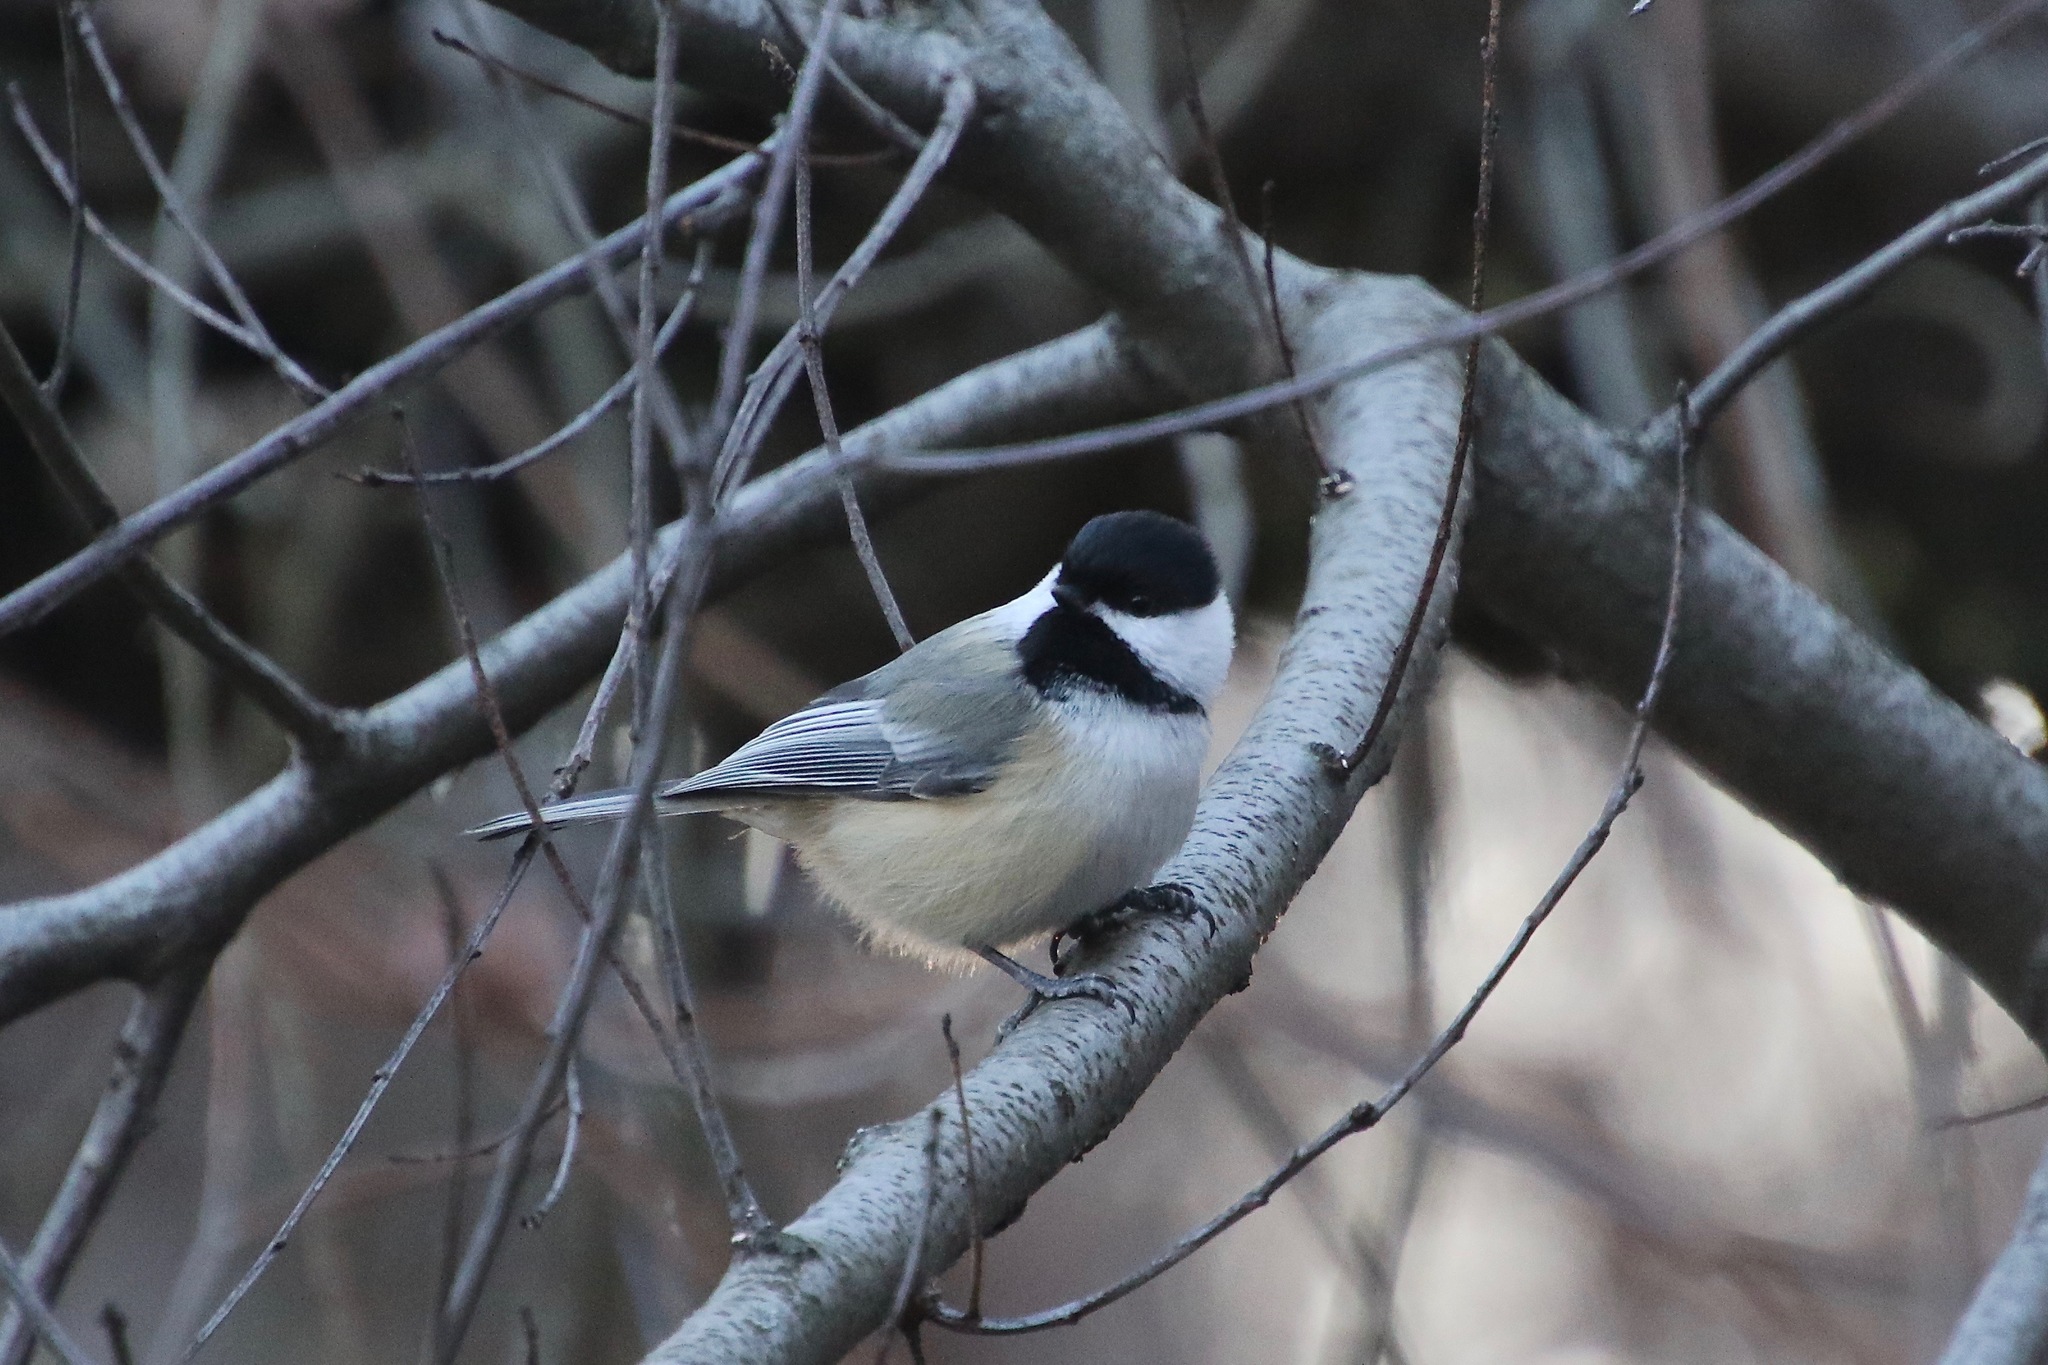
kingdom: Animalia
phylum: Chordata
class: Aves
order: Passeriformes
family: Paridae
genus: Poecile
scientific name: Poecile atricapillus
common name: Black-capped chickadee
